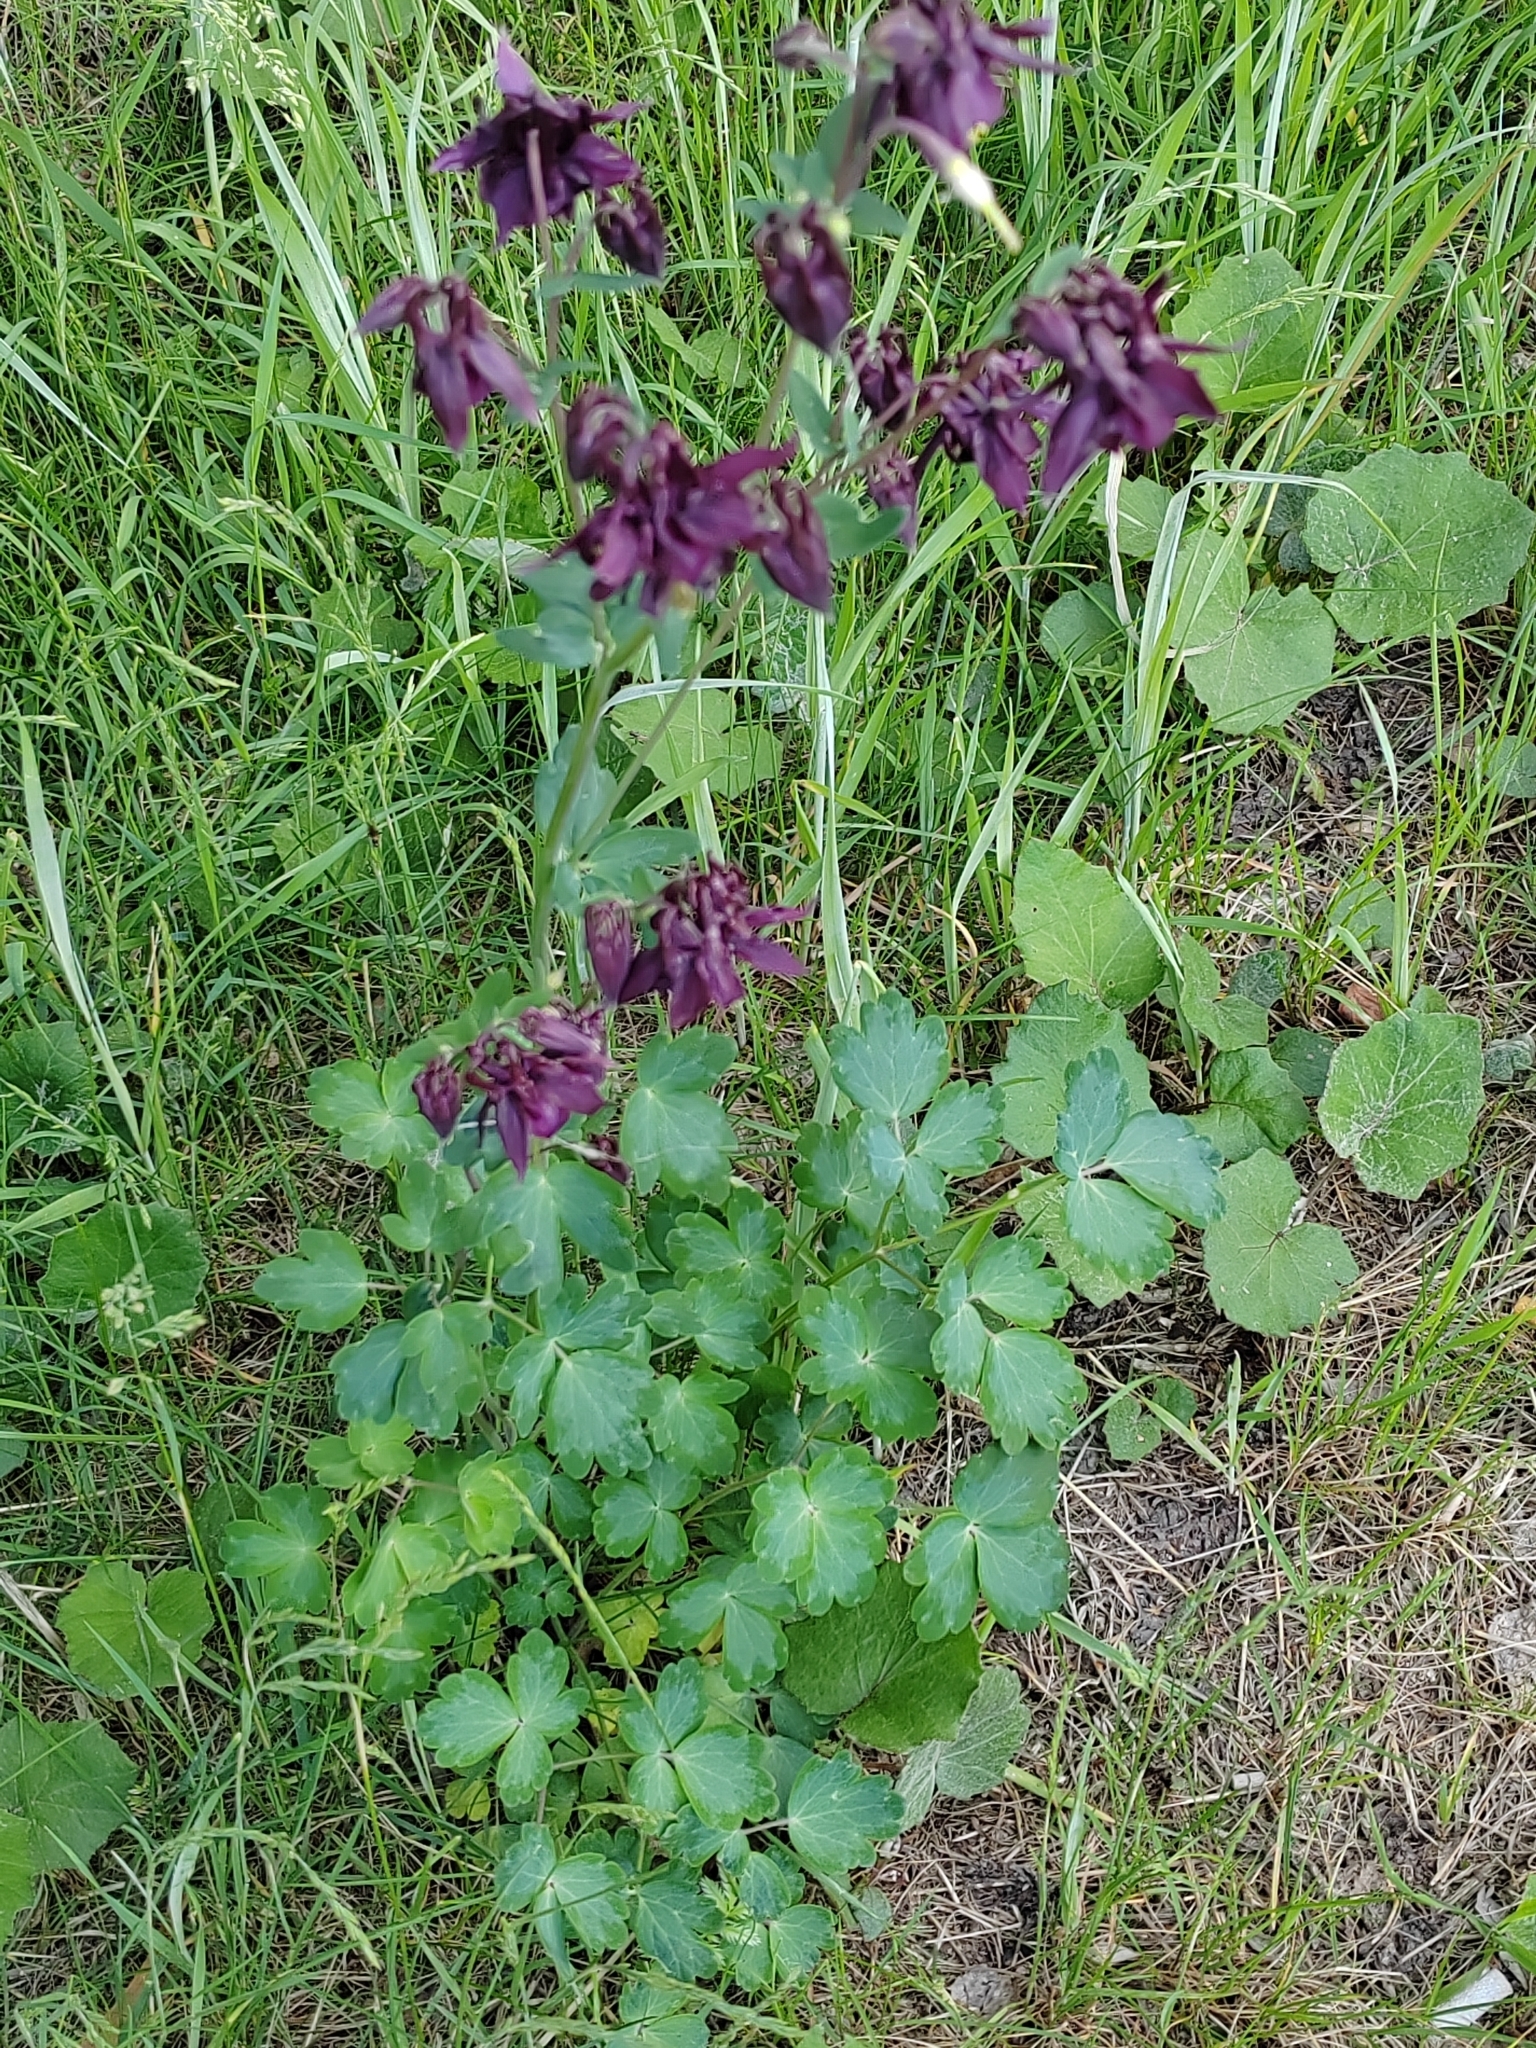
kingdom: Plantae
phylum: Tracheophyta
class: Magnoliopsida
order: Ranunculales
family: Ranunculaceae
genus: Aquilegia
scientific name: Aquilegia vulgaris
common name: Columbine
